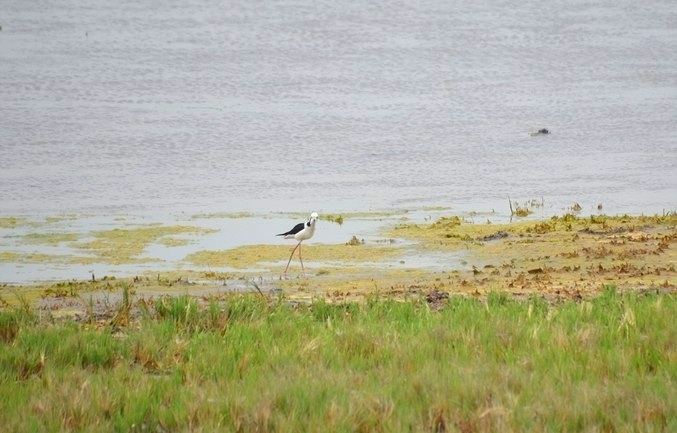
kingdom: Animalia
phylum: Chordata
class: Aves
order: Charadriiformes
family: Recurvirostridae
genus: Himantopus
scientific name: Himantopus mexicanus
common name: Black-necked stilt
